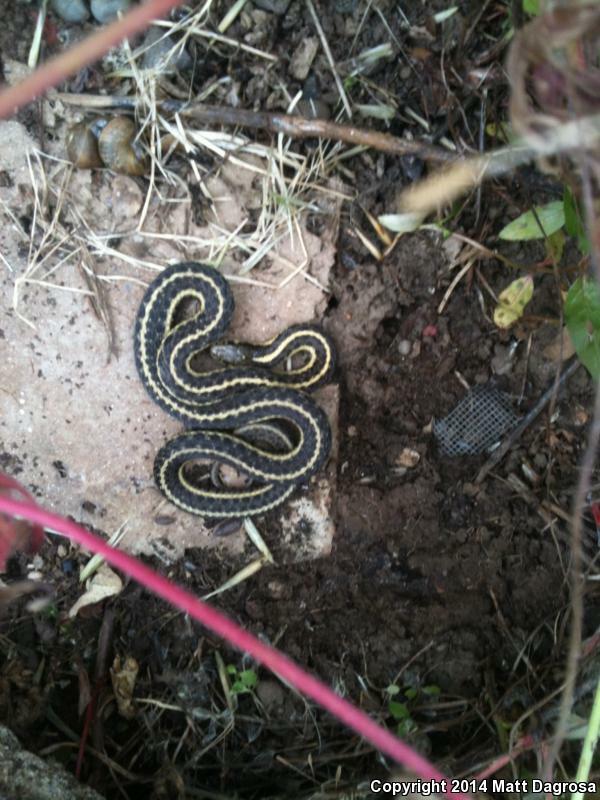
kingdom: Animalia
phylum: Chordata
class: Squamata
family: Colubridae
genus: Thamnophis
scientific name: Thamnophis ordinoides
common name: Northwestern garter snake
